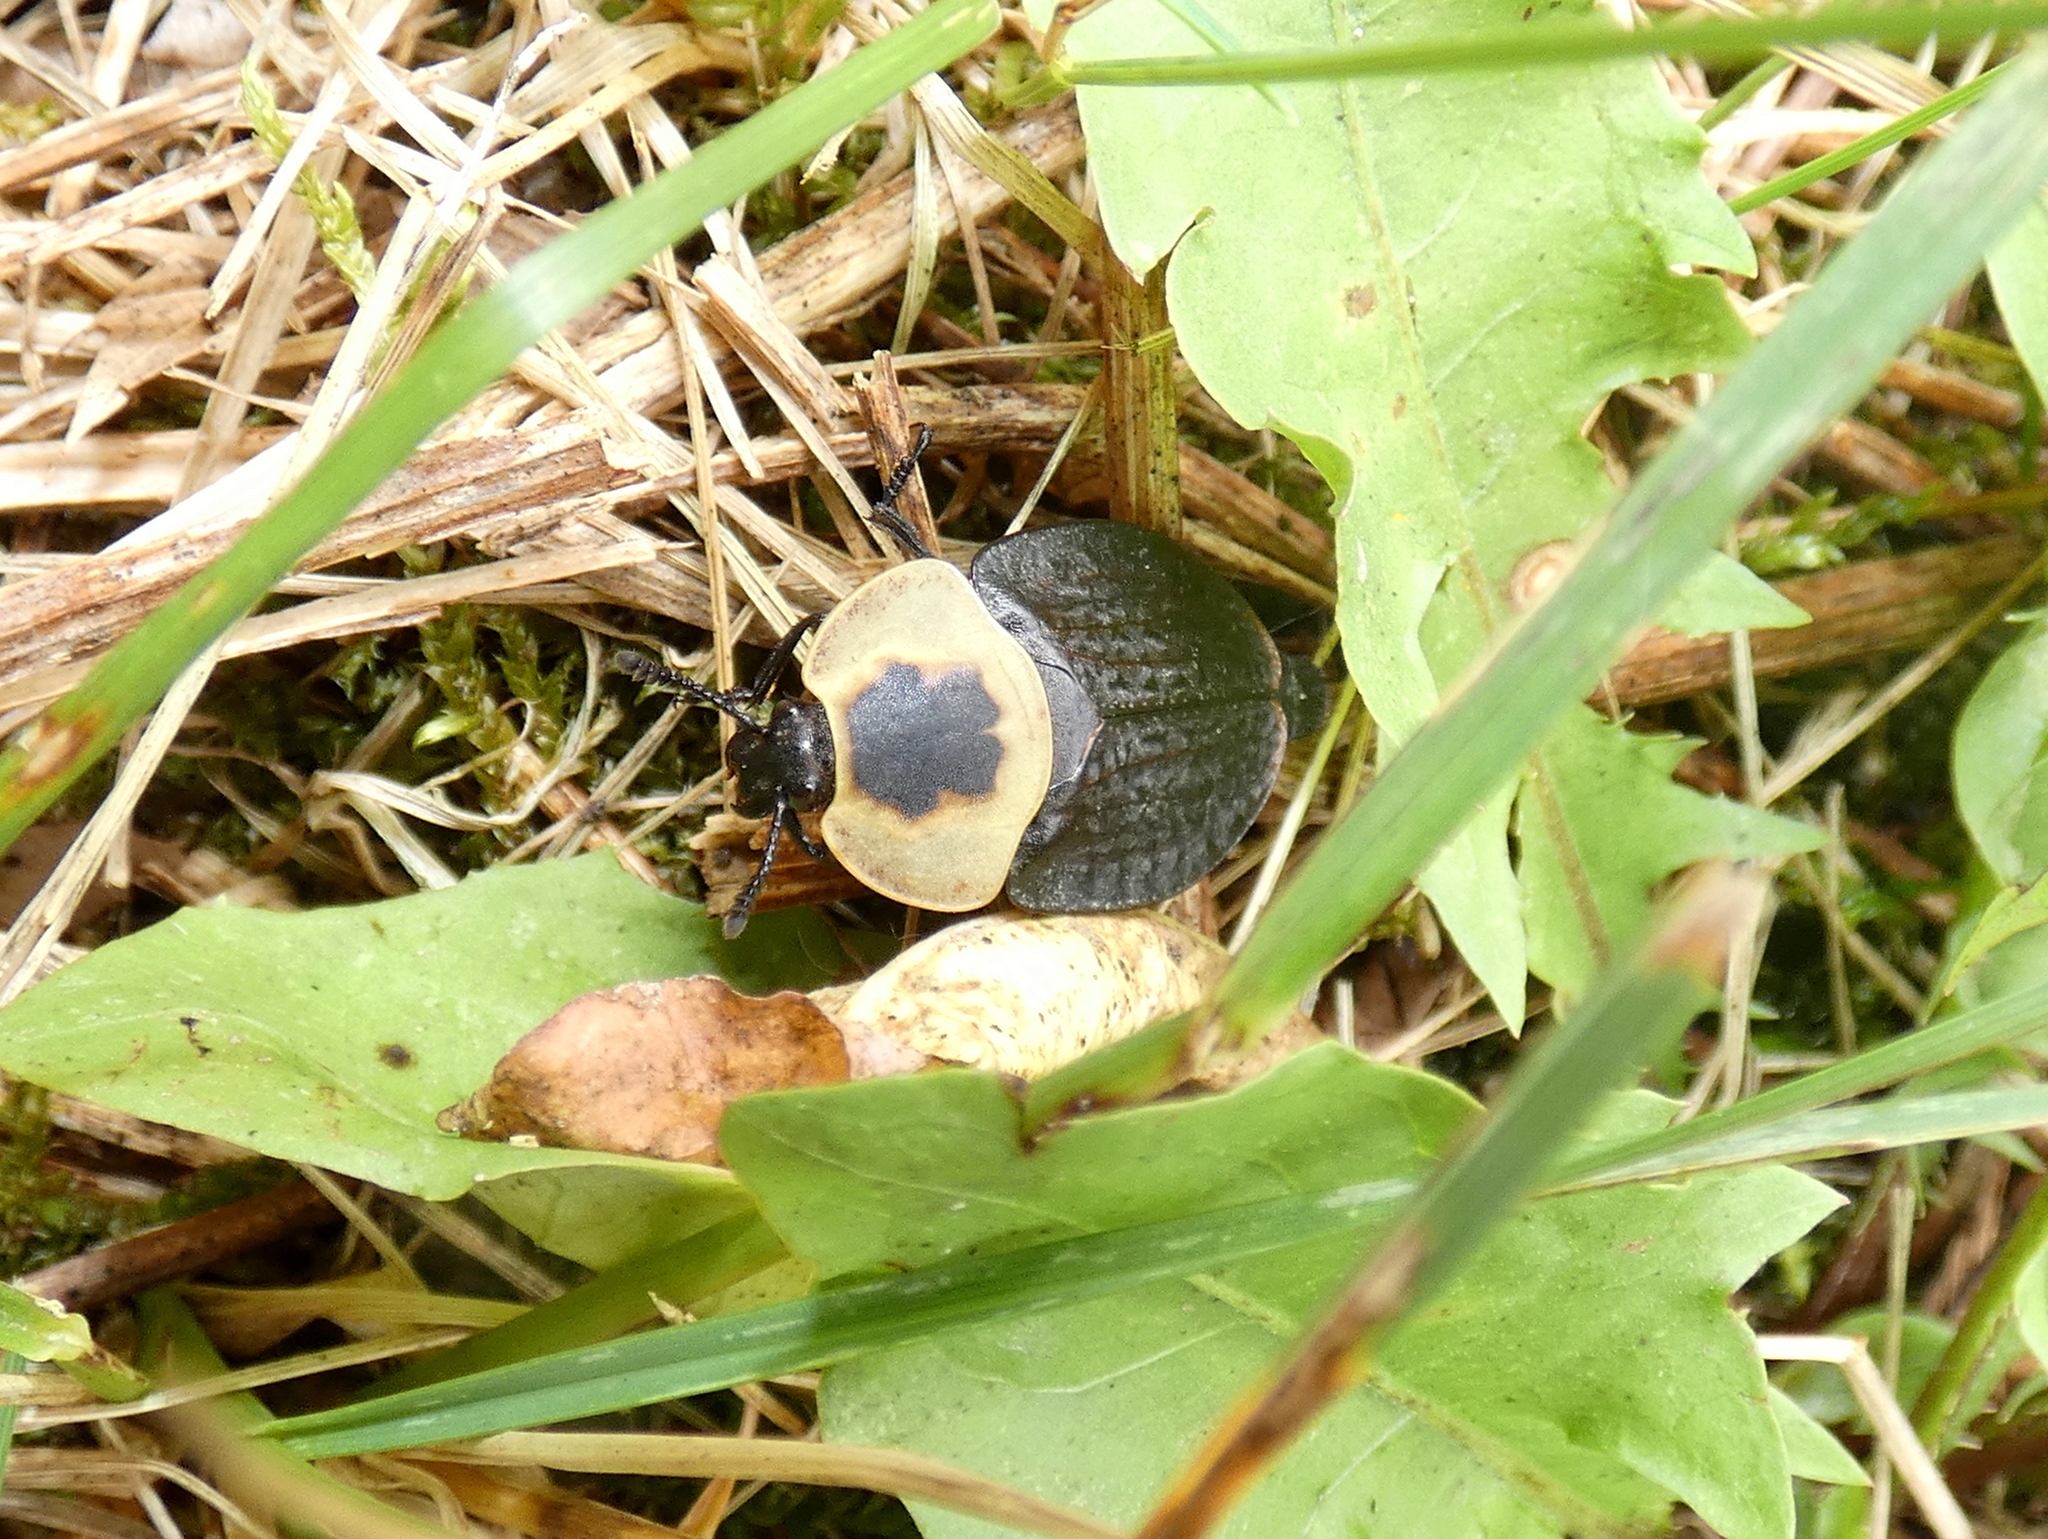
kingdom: Animalia
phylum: Arthropoda
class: Insecta
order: Coleoptera
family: Staphylinidae
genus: Necrophila
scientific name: Necrophila americana
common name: American carrion beetle
